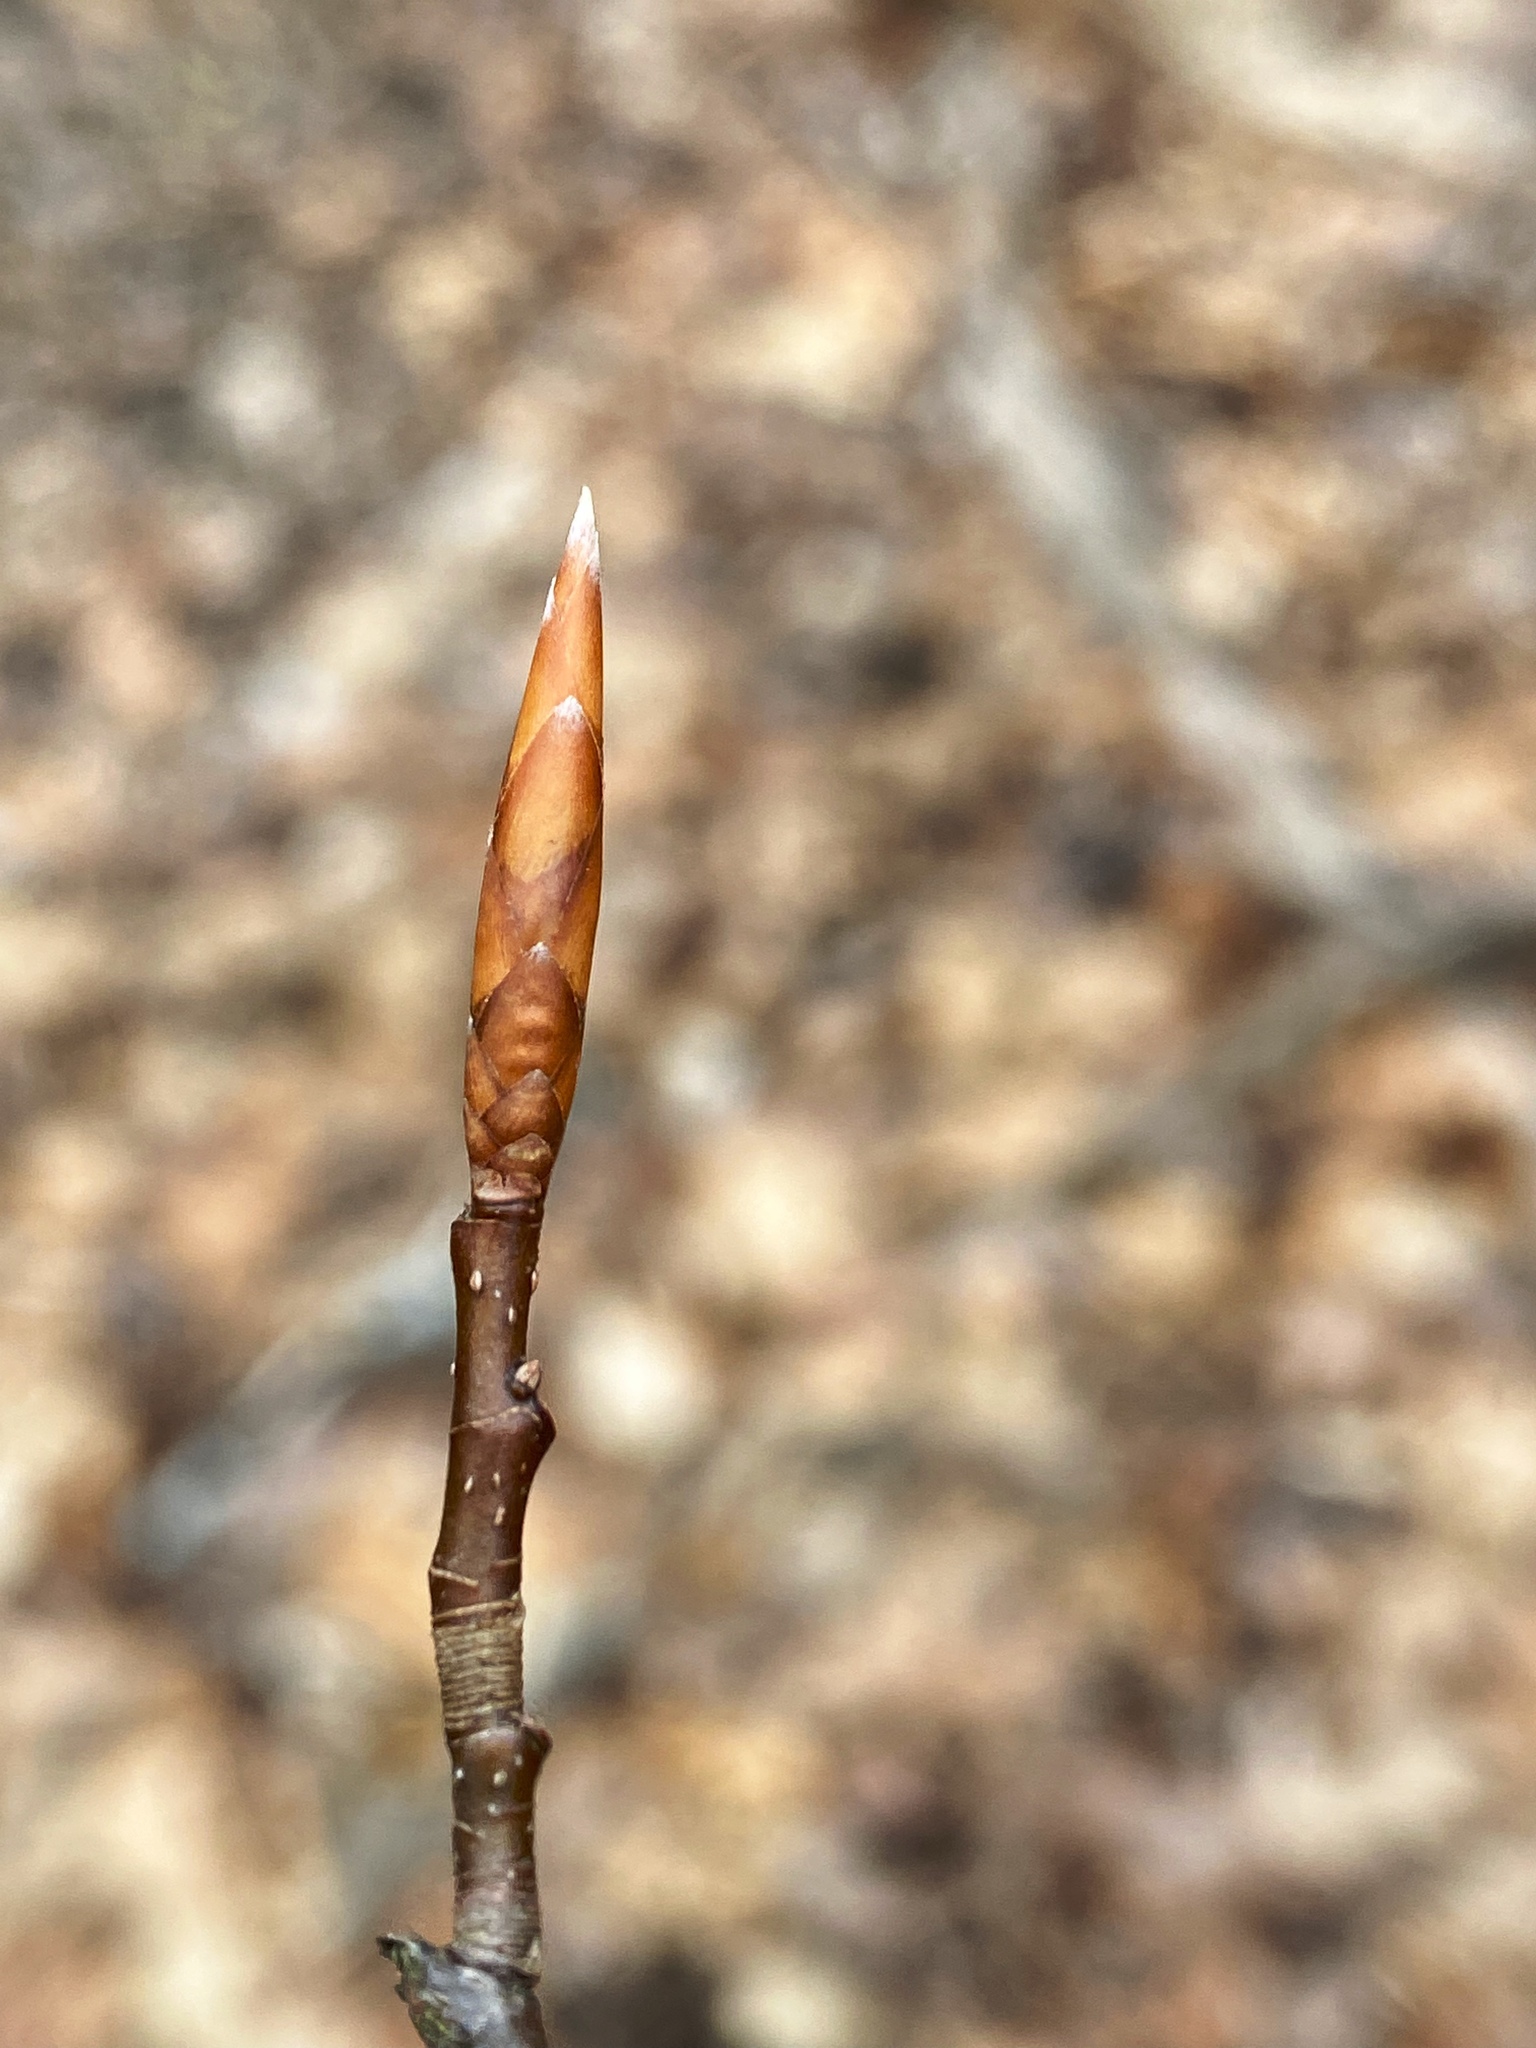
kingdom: Plantae
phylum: Tracheophyta
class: Magnoliopsida
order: Fagales
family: Fagaceae
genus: Fagus
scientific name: Fagus grandifolia
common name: American beech
